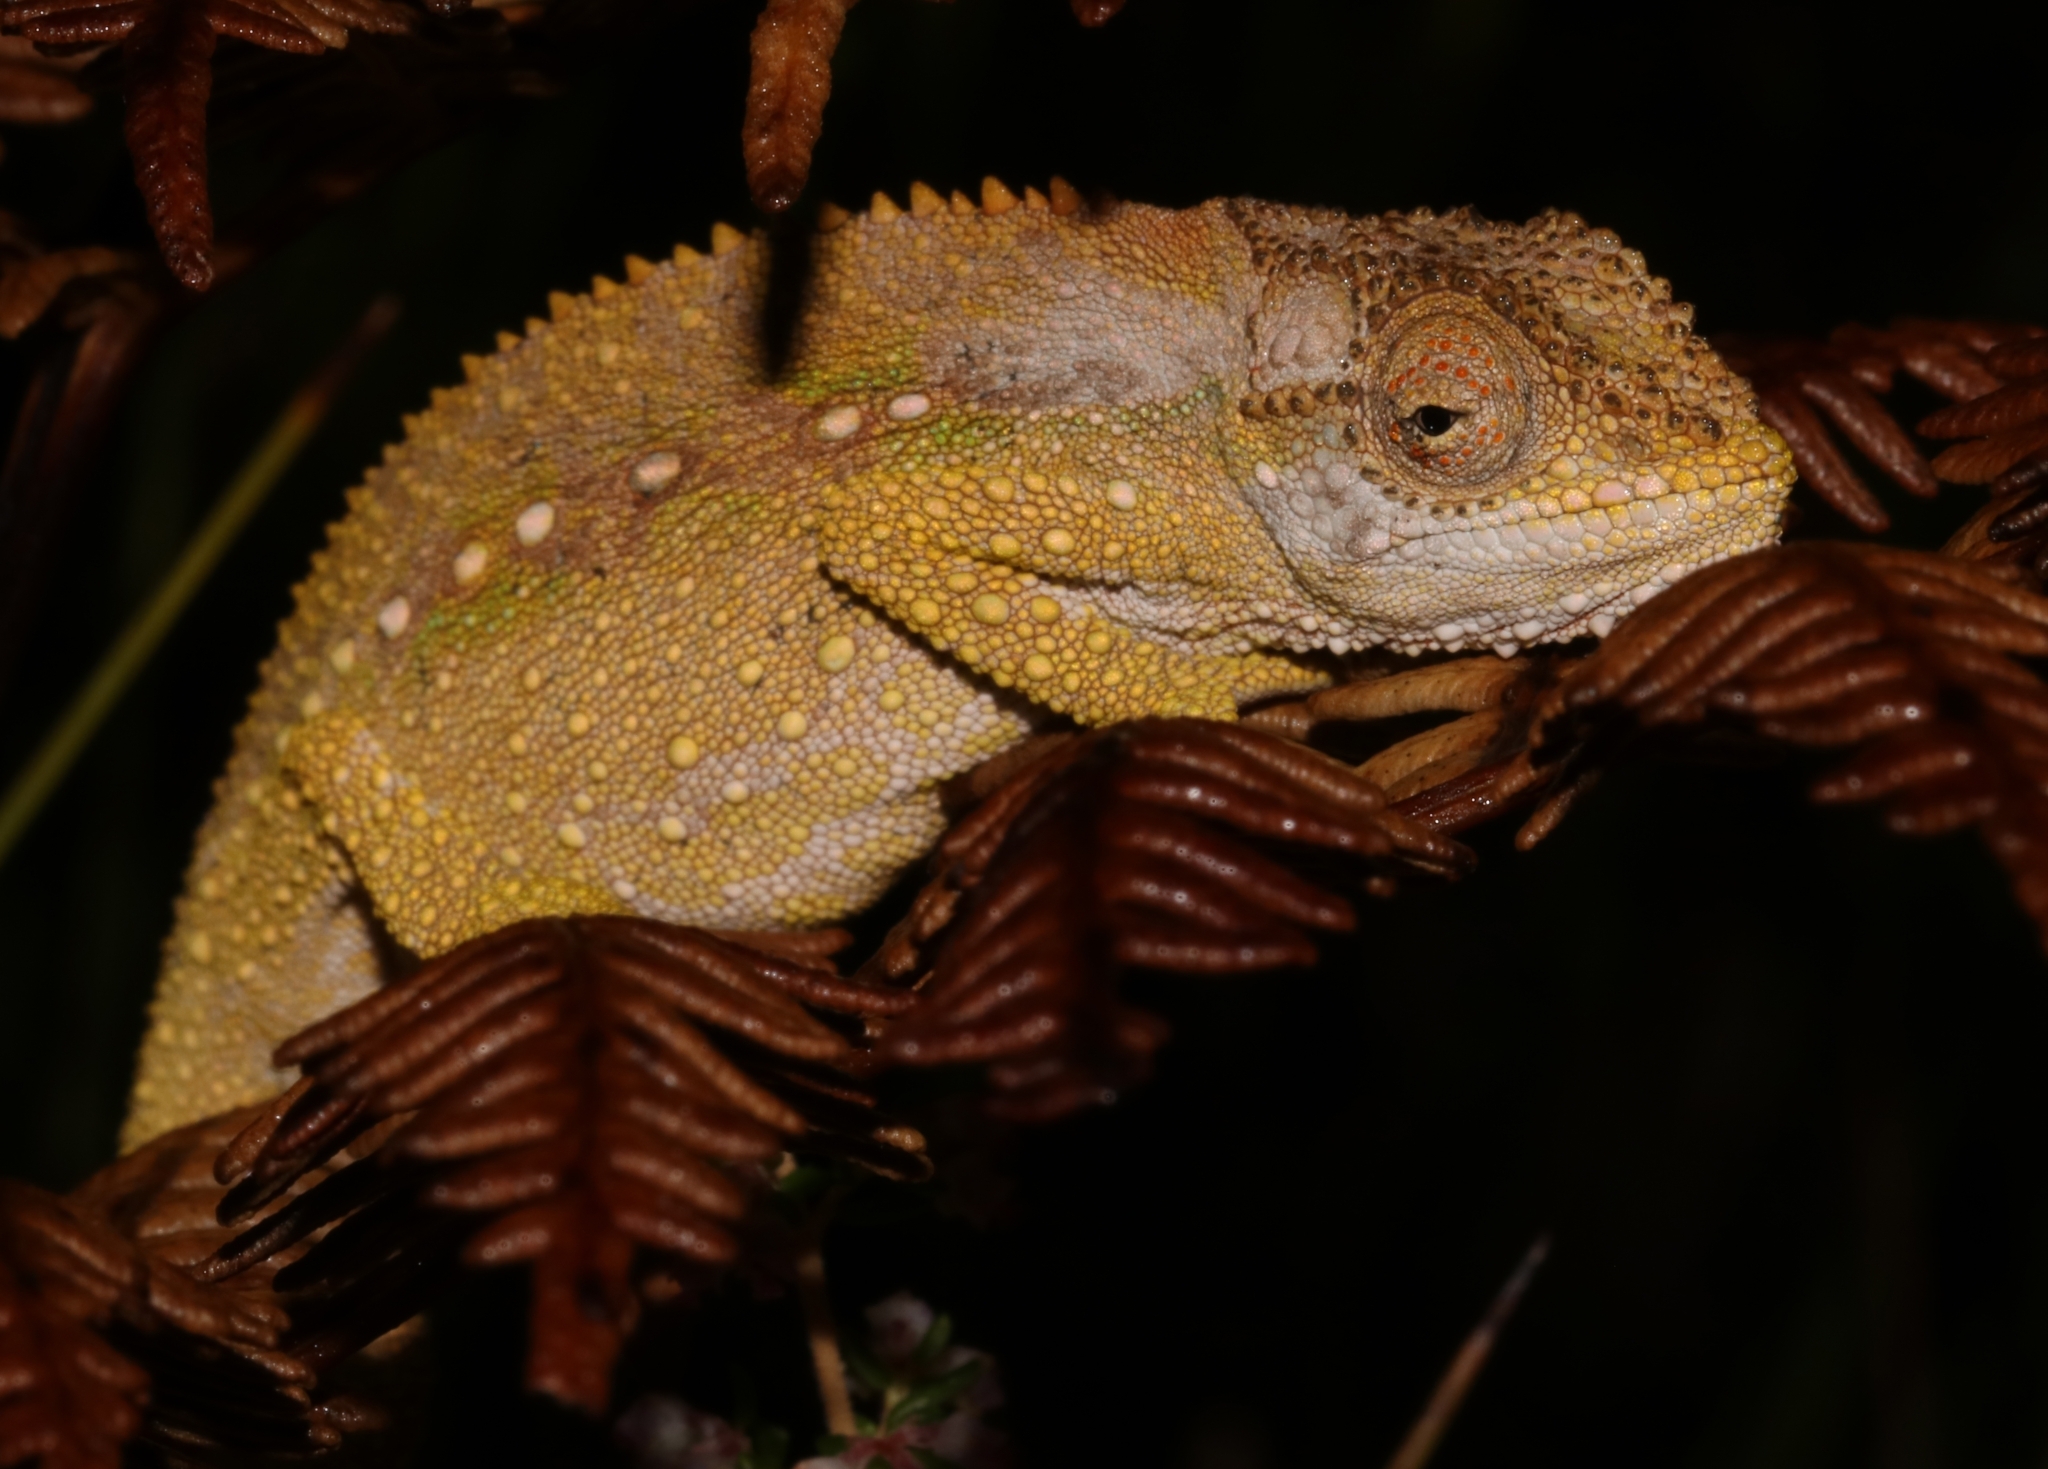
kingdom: Animalia
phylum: Chordata
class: Squamata
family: Chamaeleonidae
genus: Bradypodion
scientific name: Bradypodion gutturale
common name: Little karoo dwarf chameleon
